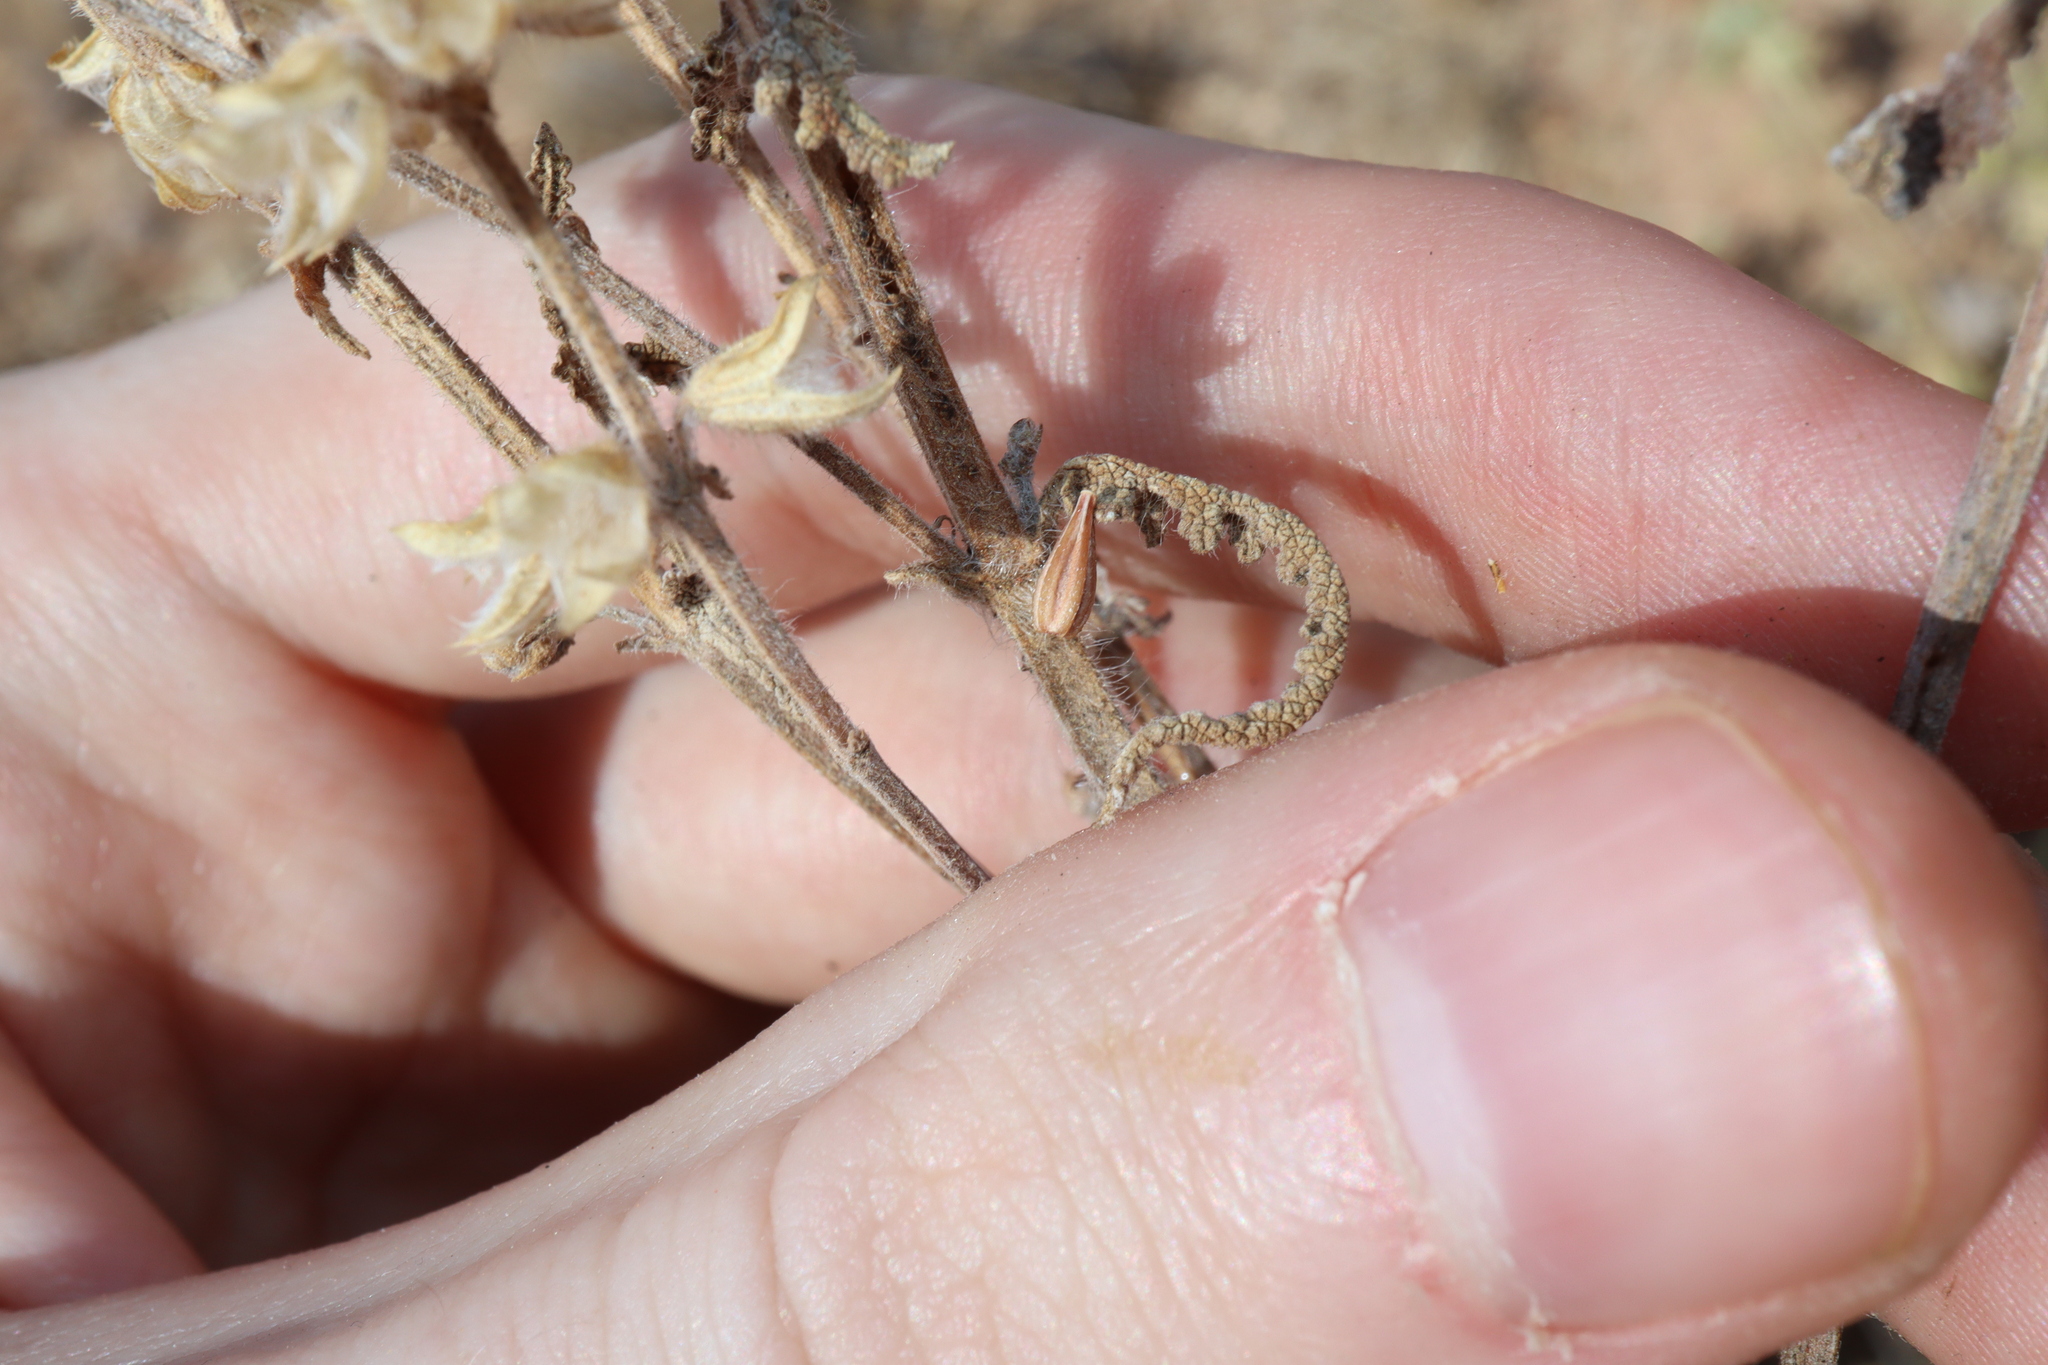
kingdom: Plantae
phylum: Tracheophyta
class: Magnoliopsida
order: Lamiales
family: Lamiaceae
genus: Salvia
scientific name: Salvia verbenaca
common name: Wild clary
